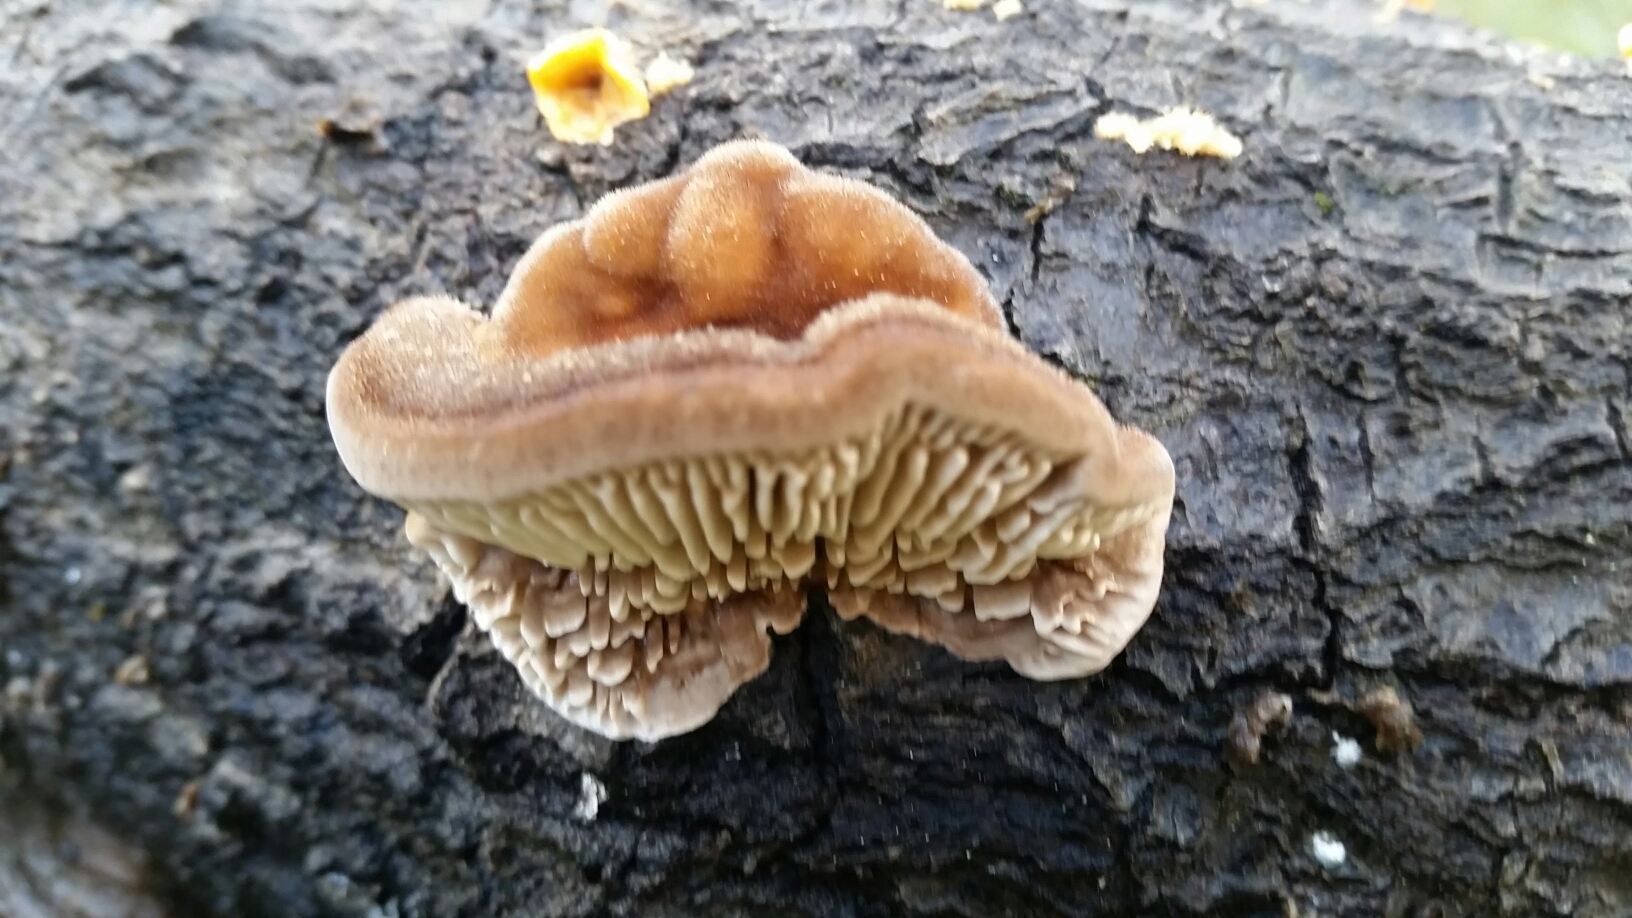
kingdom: Fungi
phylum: Basidiomycota
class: Agaricomycetes
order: Polyporales
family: Polyporaceae
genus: Lenzites
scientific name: Lenzites betulinus
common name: Birch mazegill
